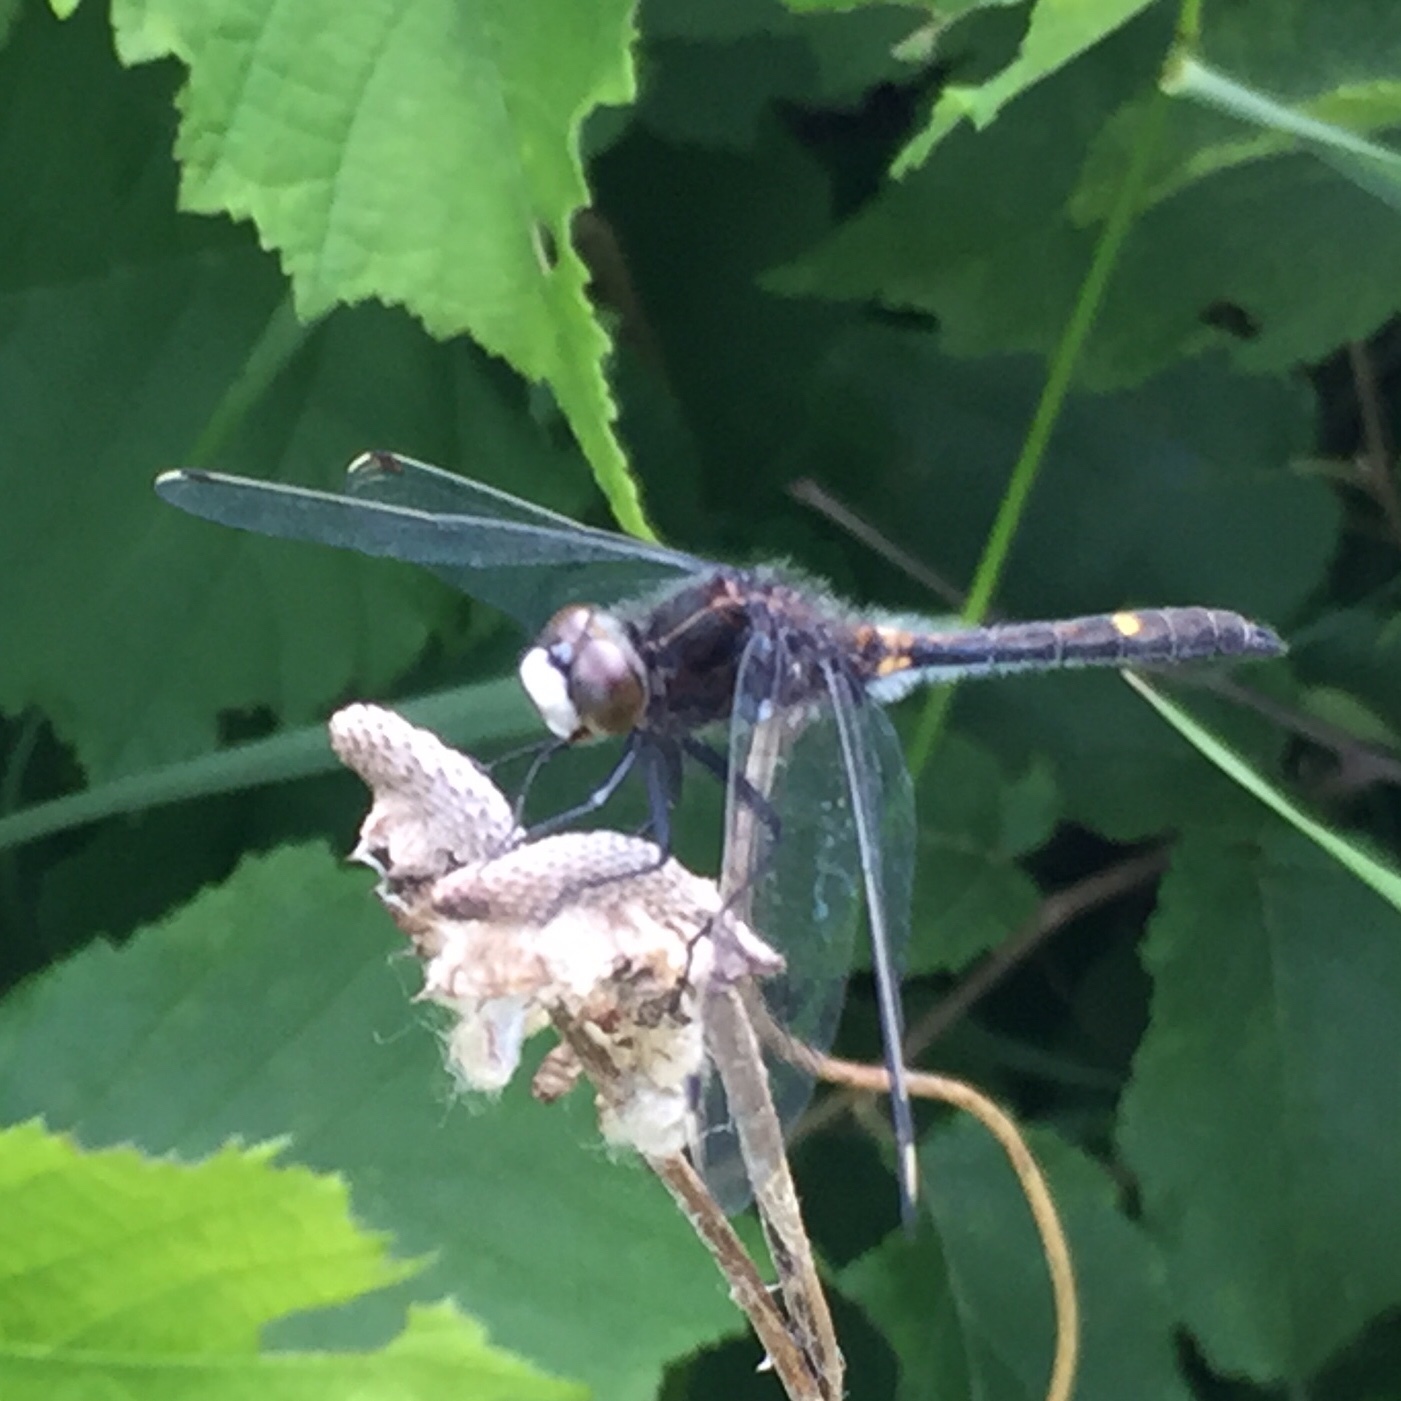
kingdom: Animalia
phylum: Arthropoda
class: Insecta
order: Odonata
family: Libellulidae
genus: Leucorrhinia
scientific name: Leucorrhinia intacta
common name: Dot-tailed whiteface
